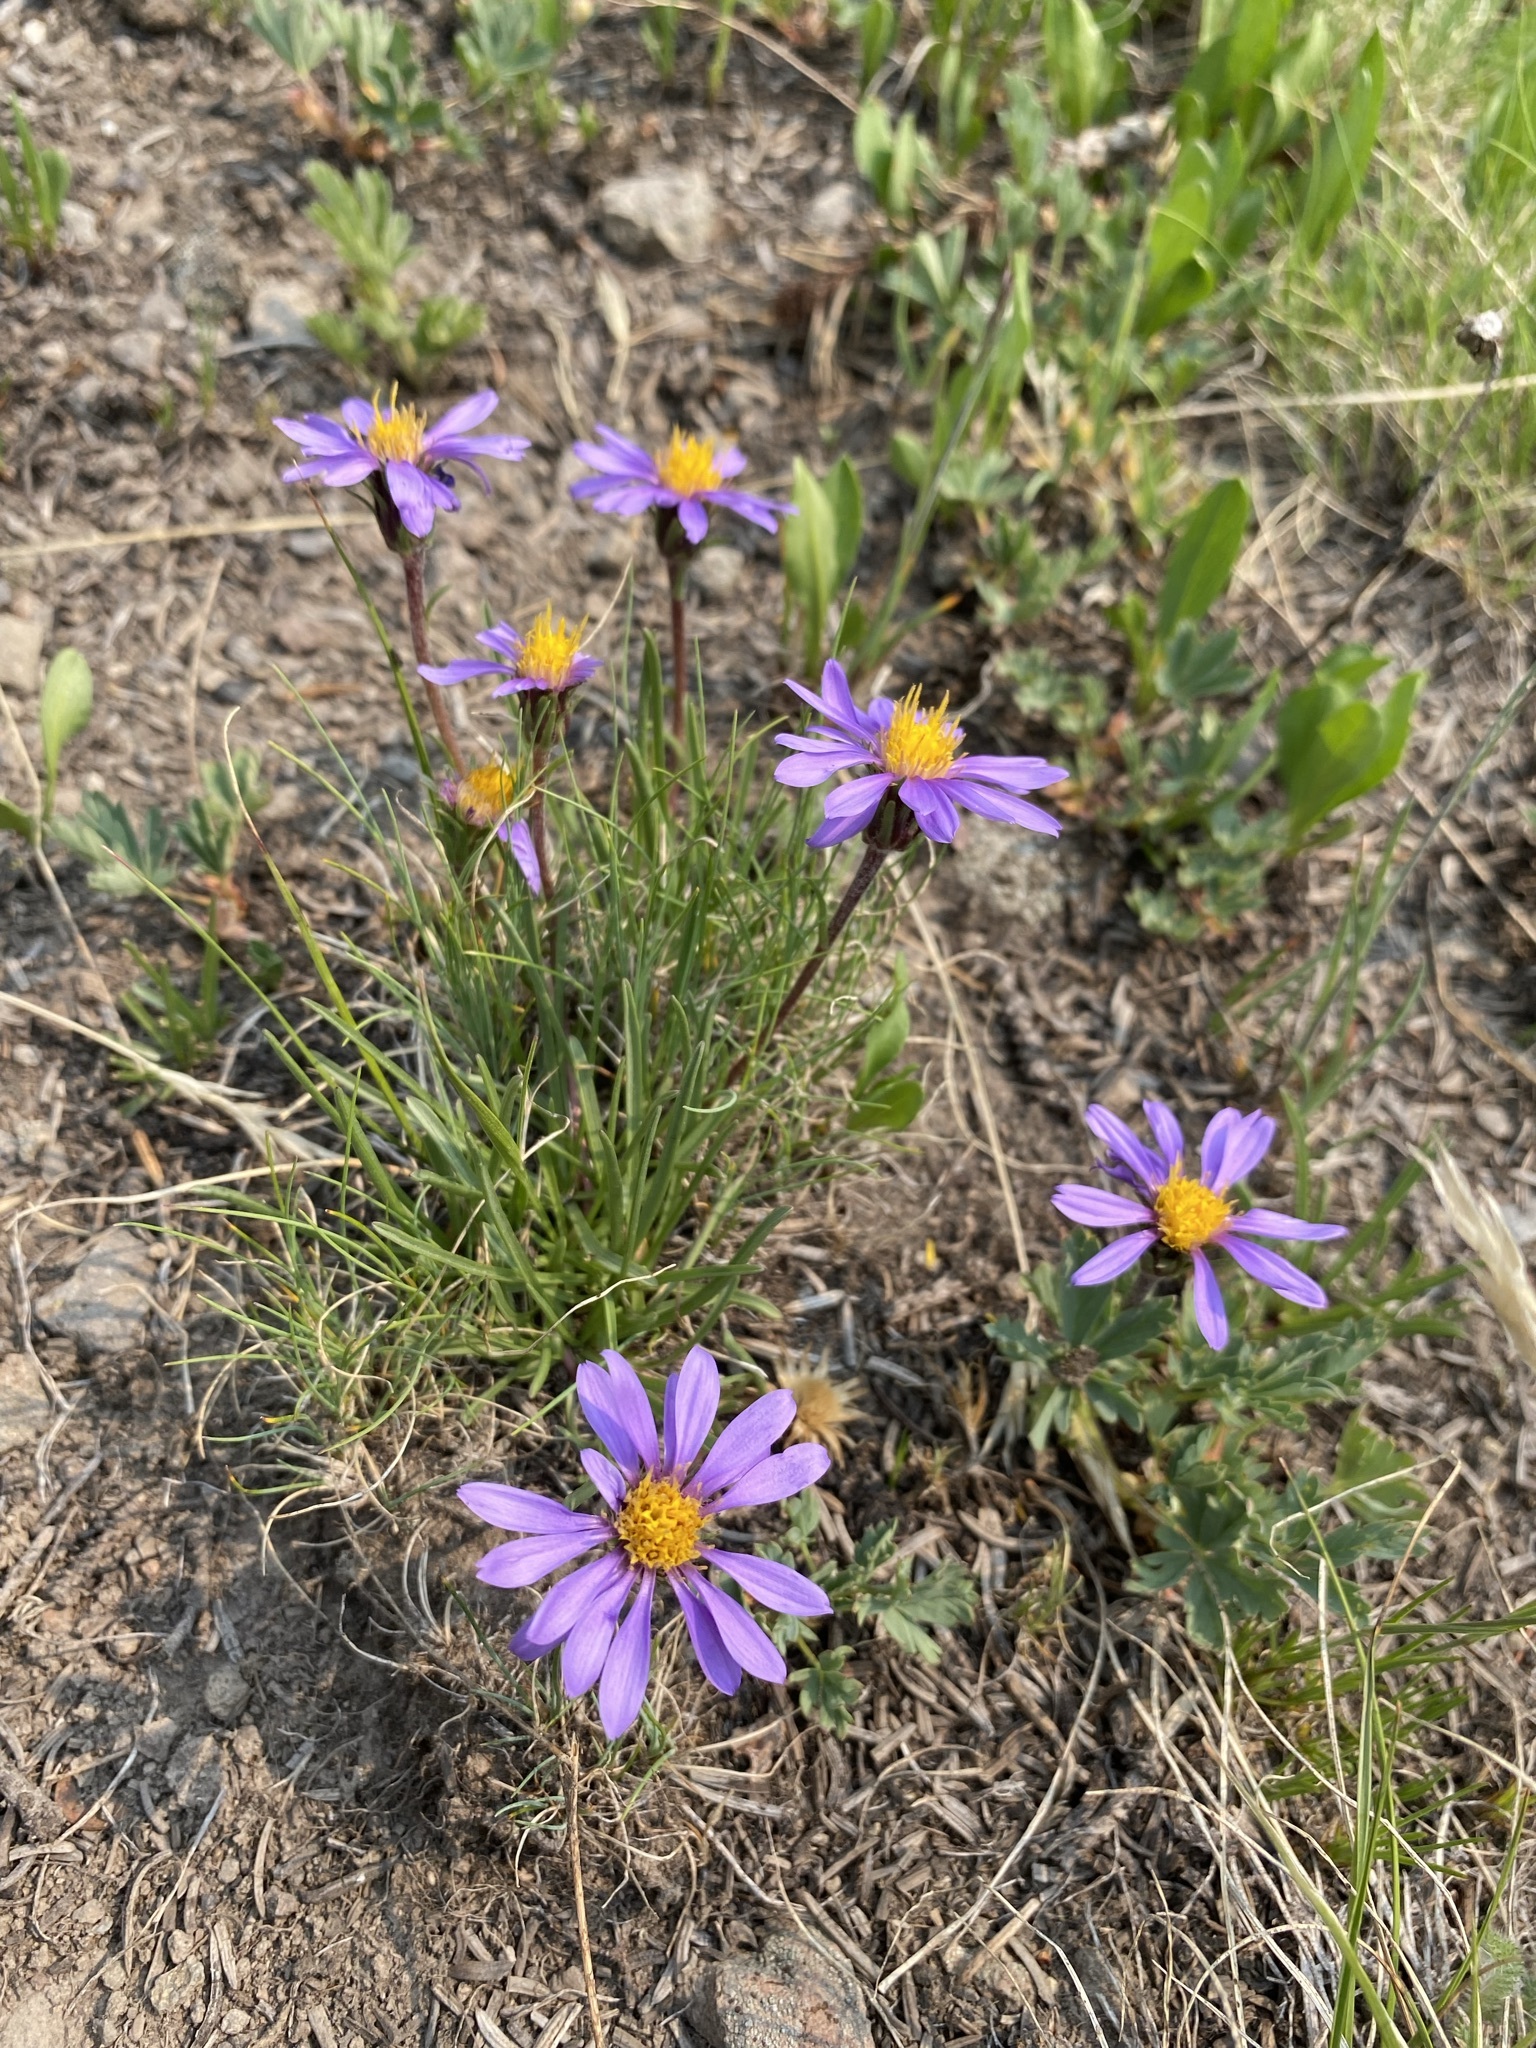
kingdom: Plantae
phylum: Tracheophyta
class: Magnoliopsida
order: Asterales
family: Asteraceae
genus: Oreostemma
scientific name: Oreostemma alpigenum
